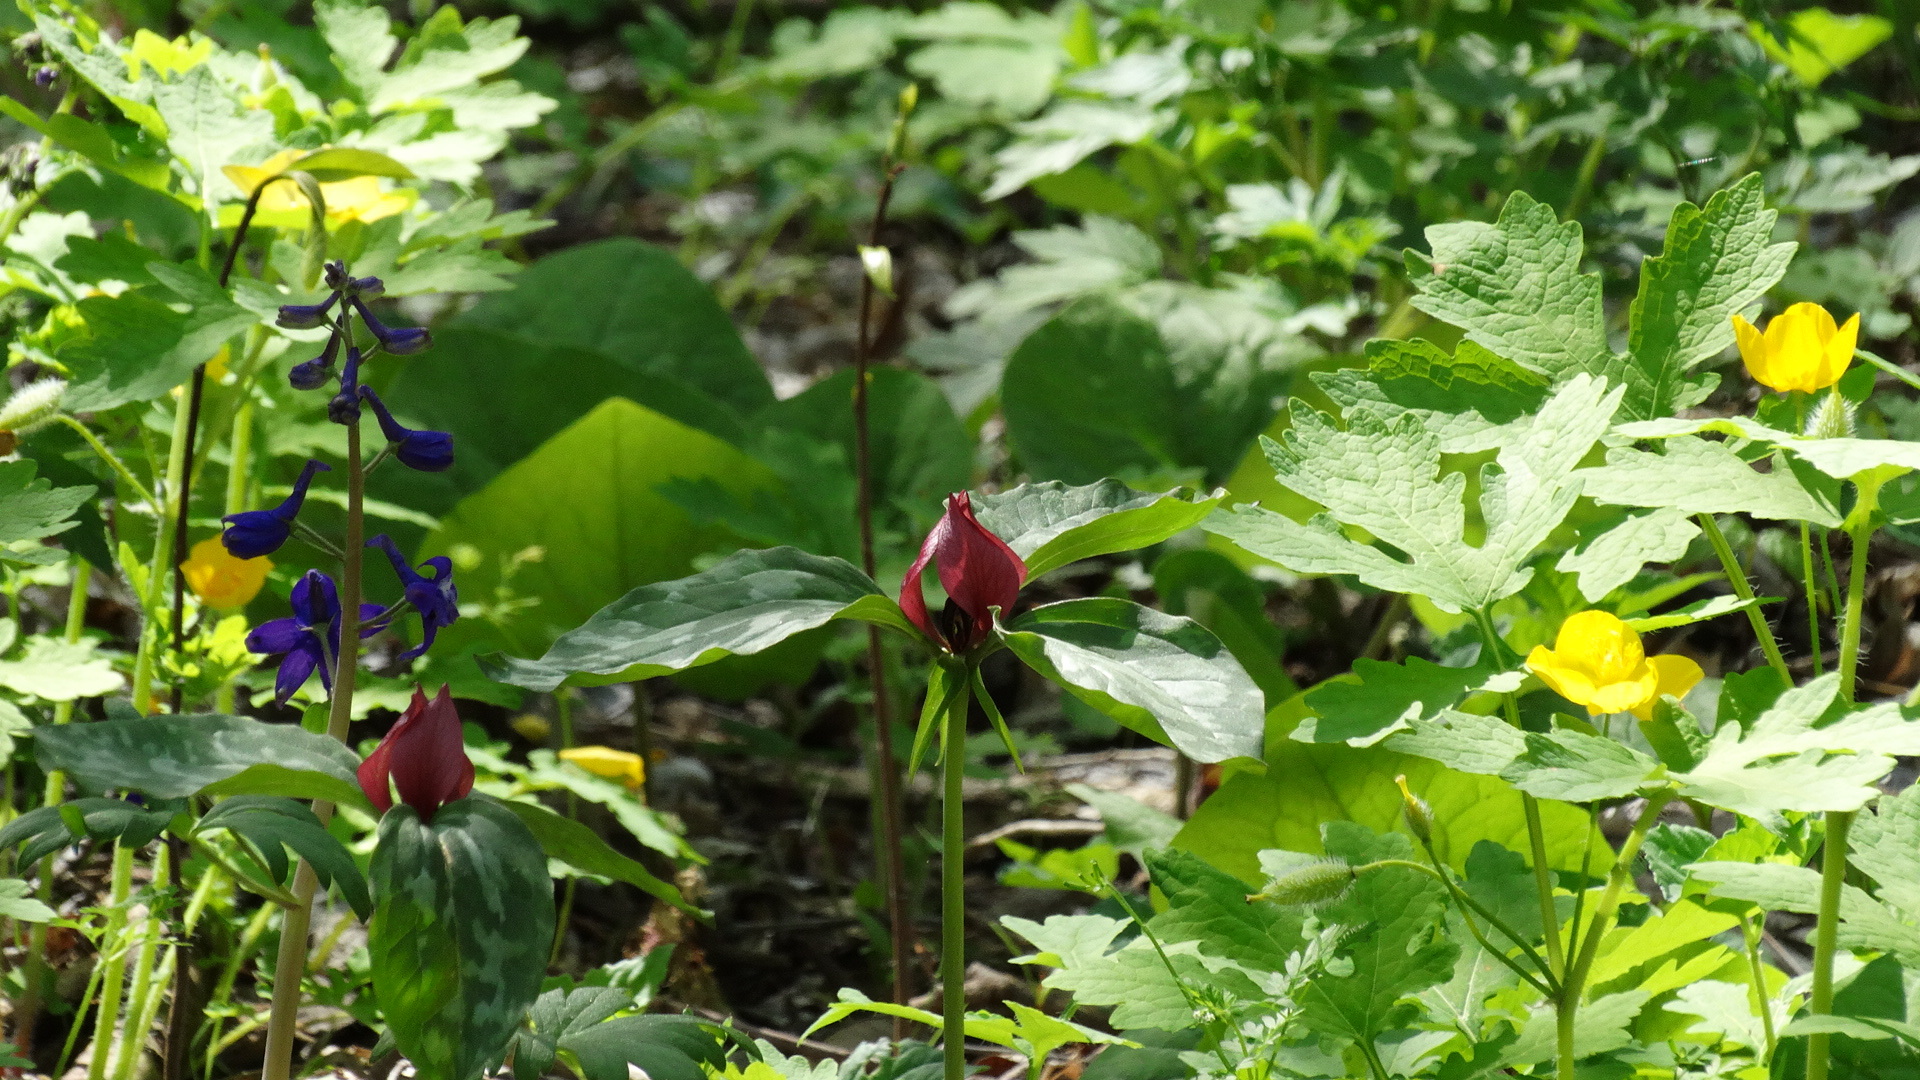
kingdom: Plantae
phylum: Tracheophyta
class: Liliopsida
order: Liliales
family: Melanthiaceae
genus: Trillium
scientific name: Trillium recurvatum
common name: Bloody butcher
